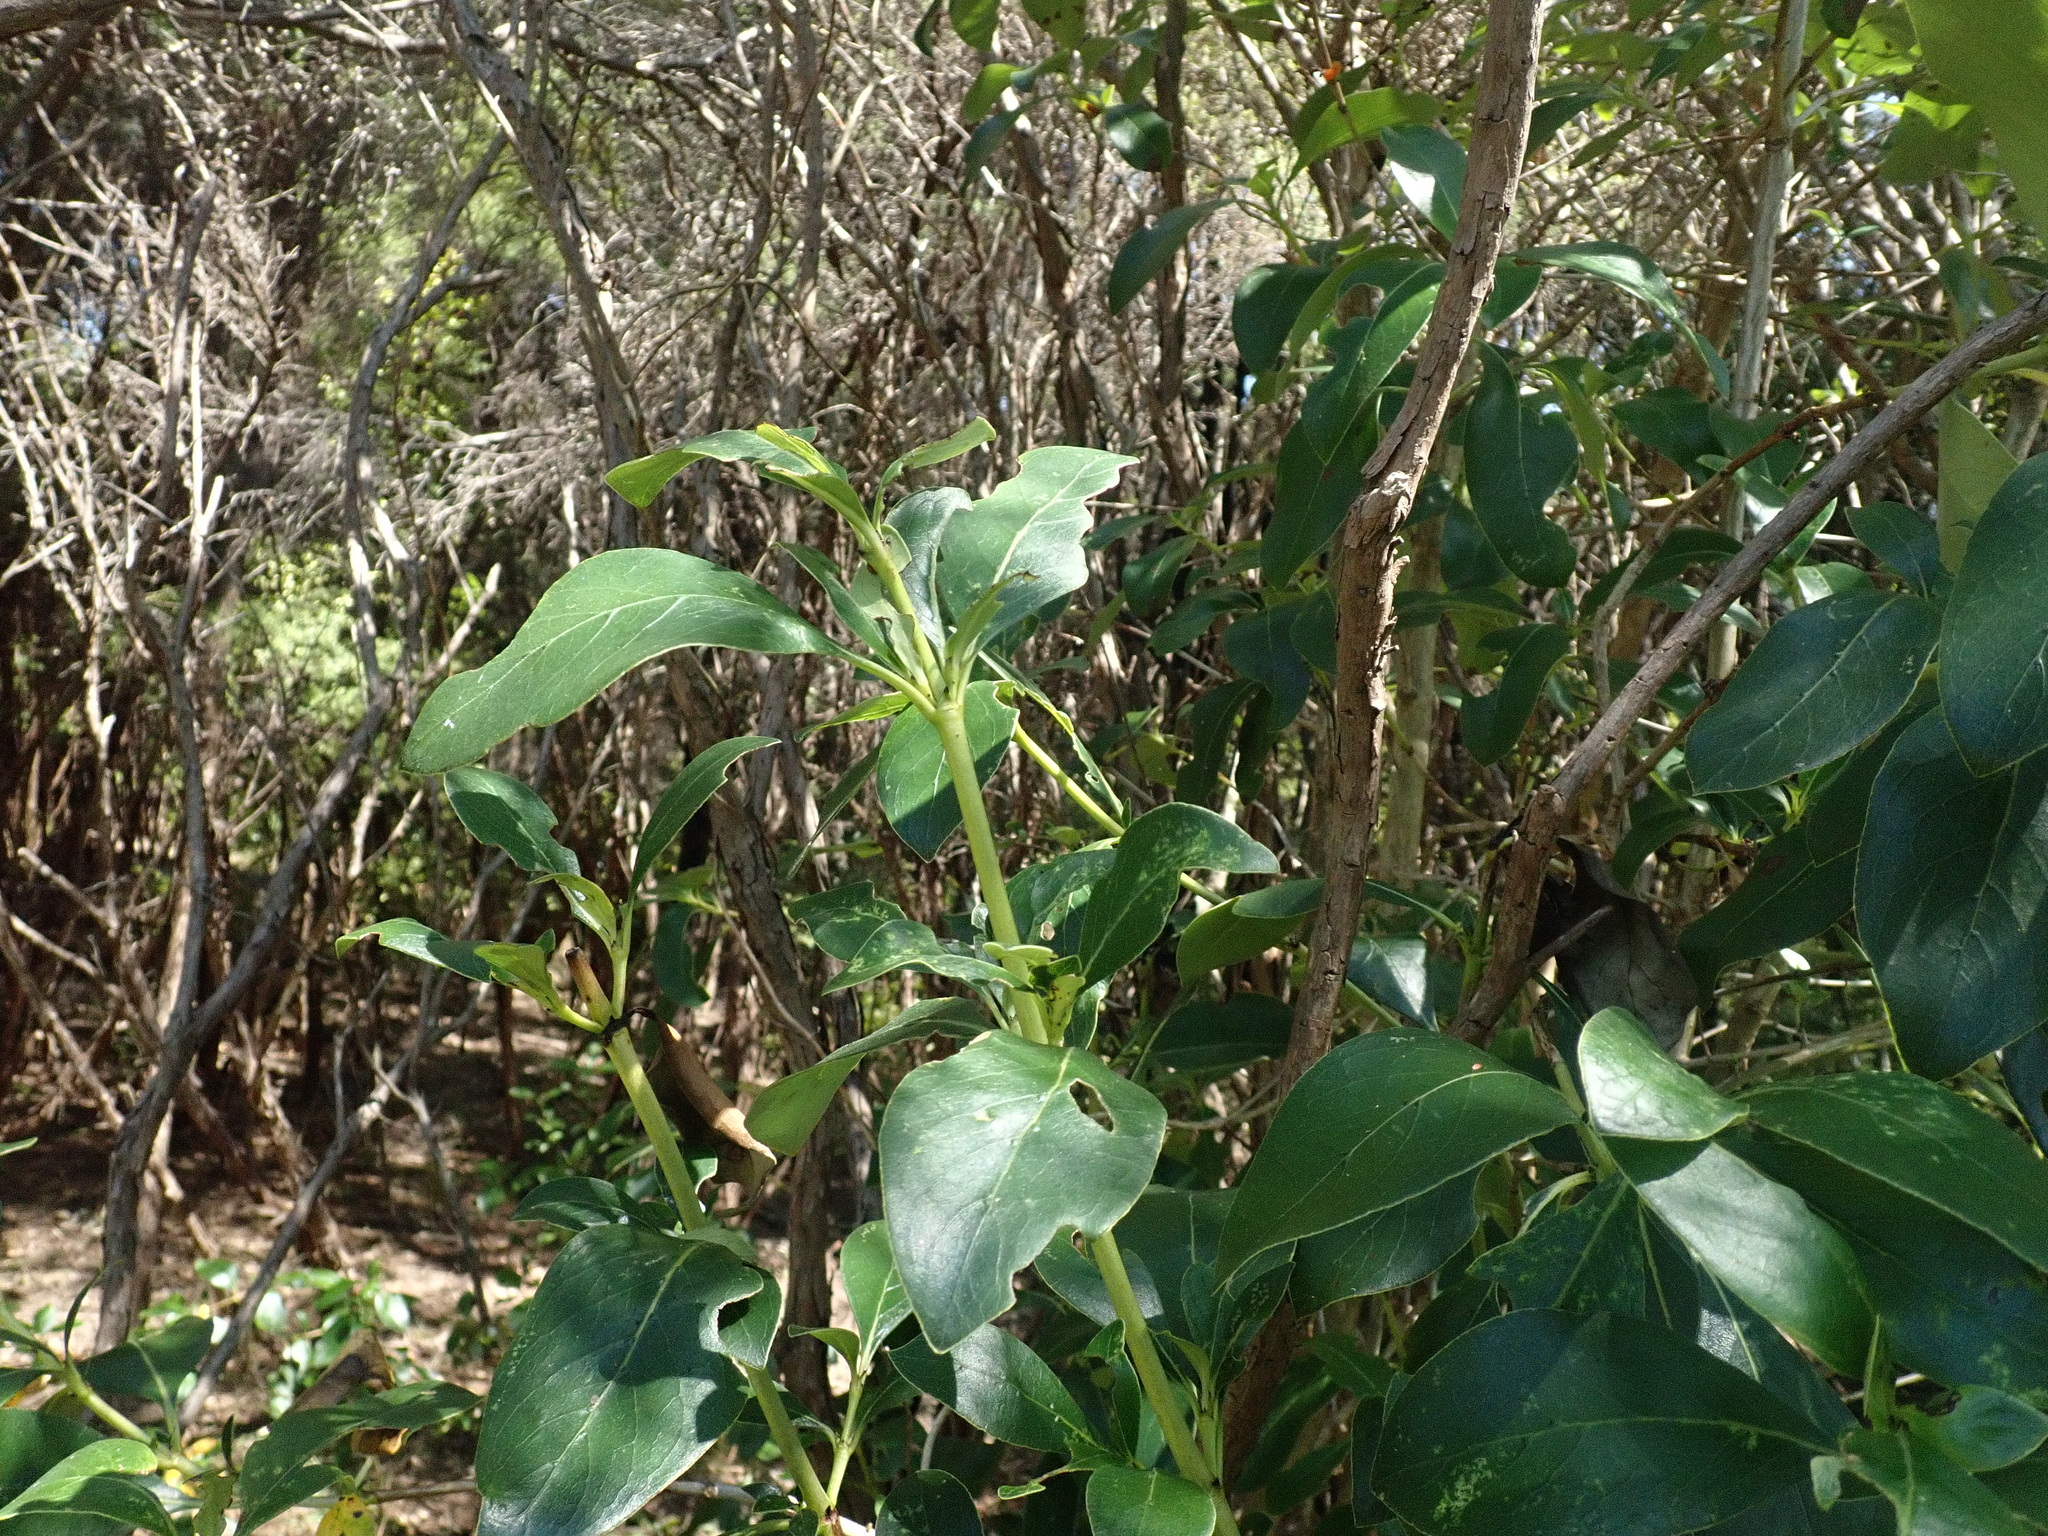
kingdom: Plantae
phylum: Tracheophyta
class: Magnoliopsida
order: Gentianales
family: Rubiaceae
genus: Coprosma
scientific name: Coprosma robusta
